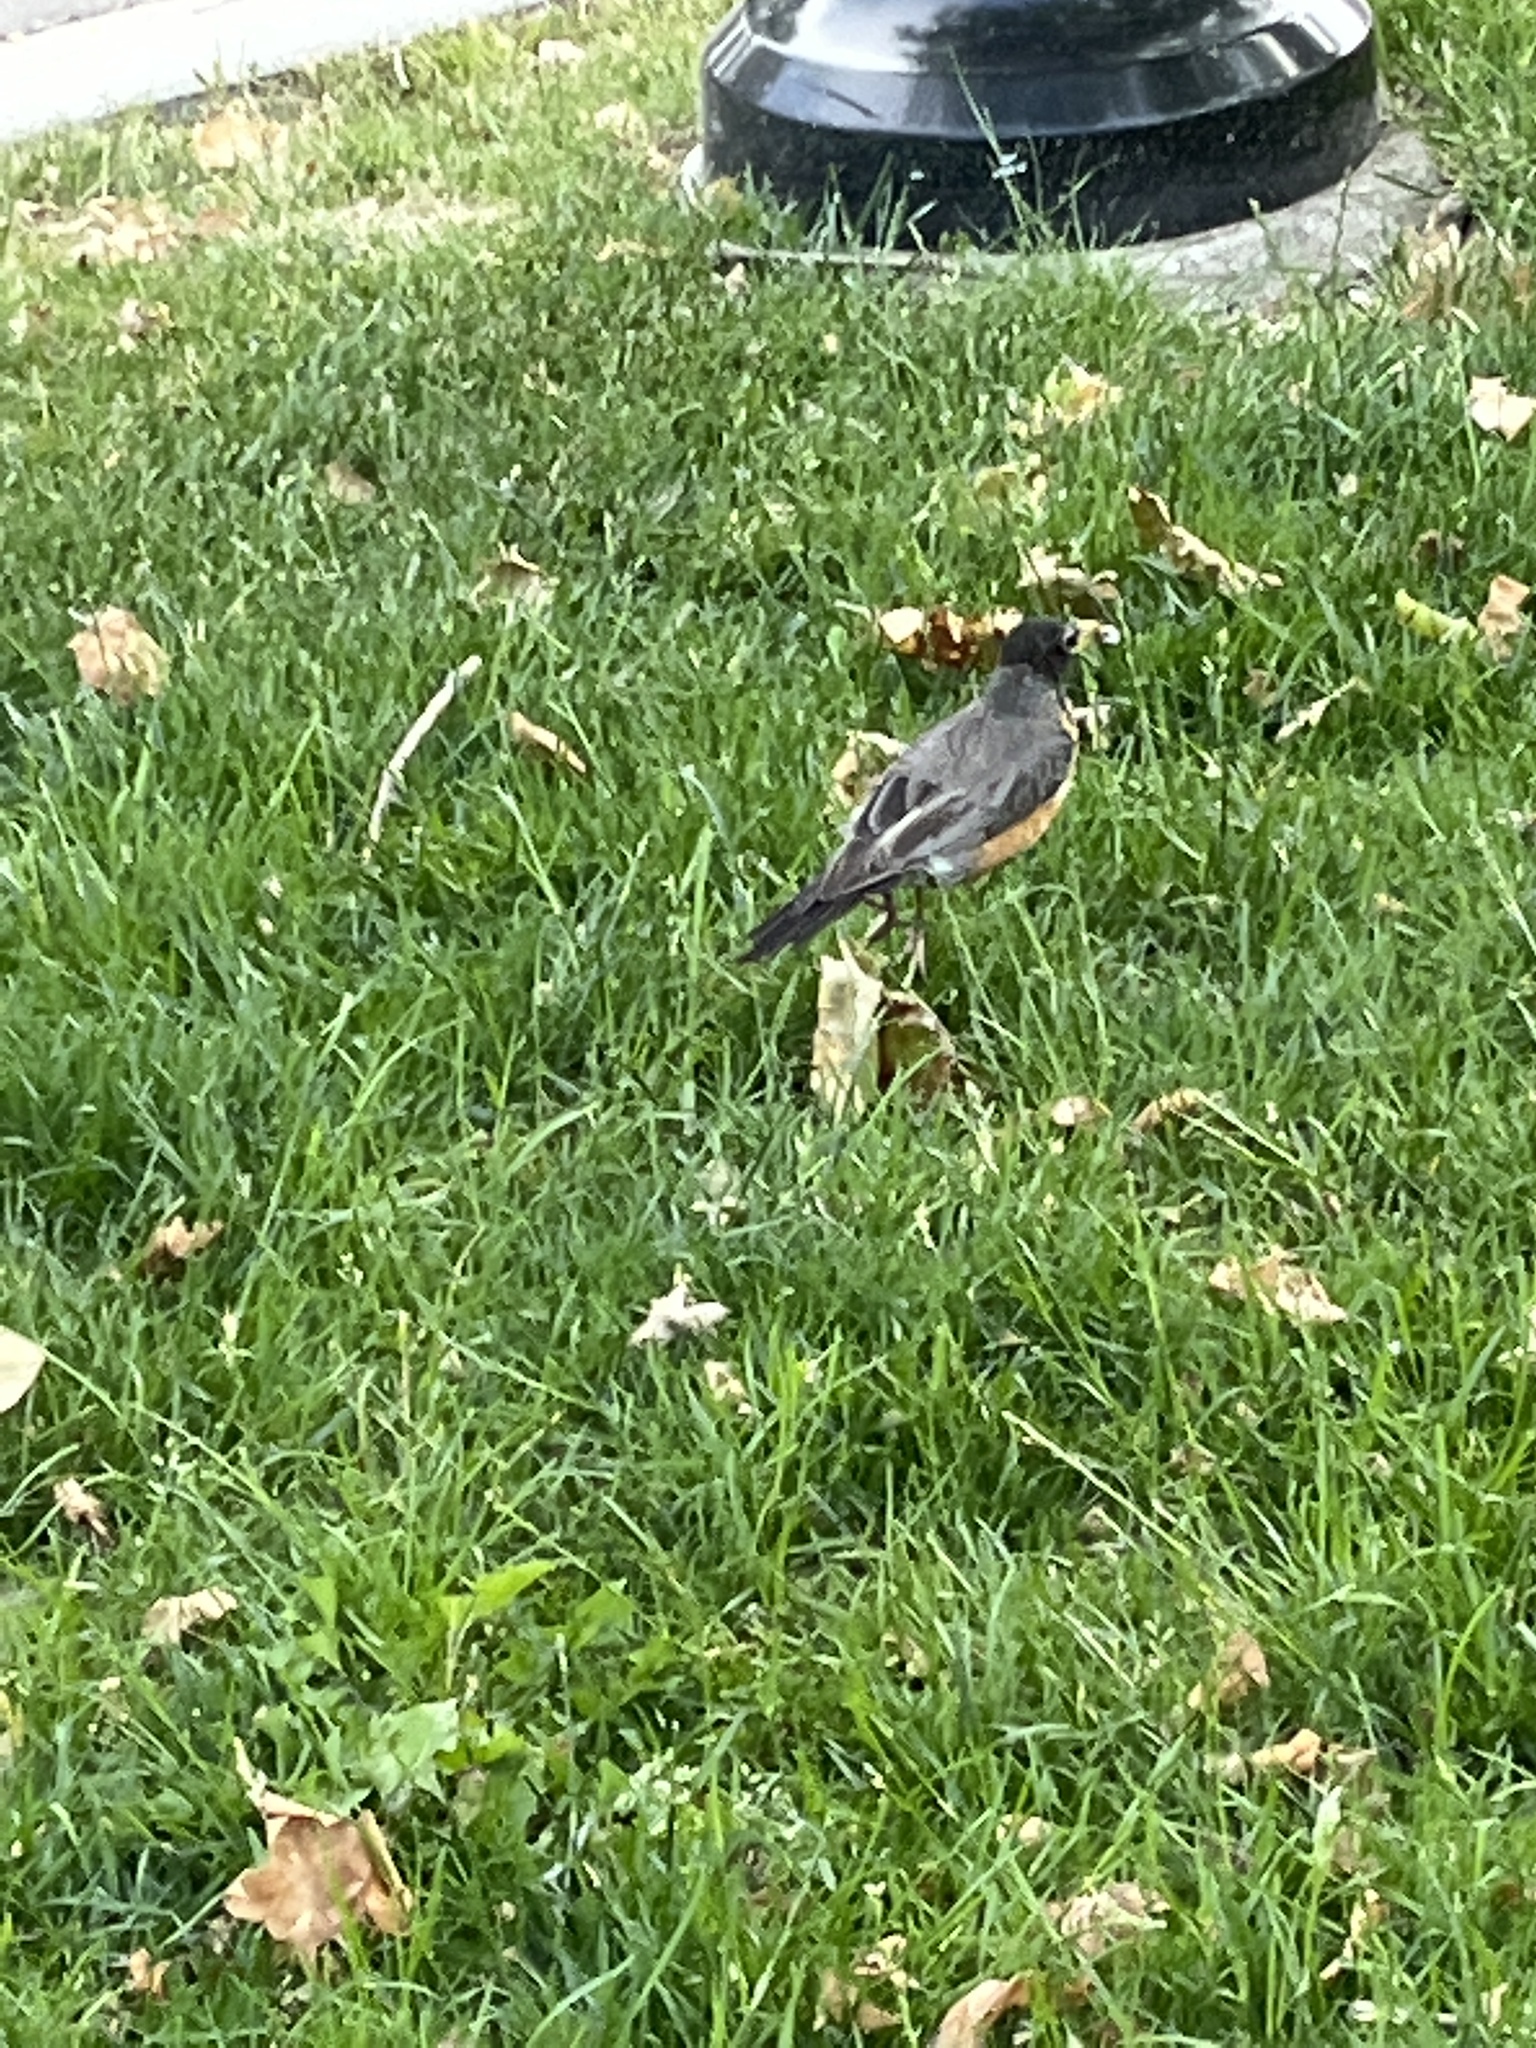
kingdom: Animalia
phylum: Chordata
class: Aves
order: Passeriformes
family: Turdidae
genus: Turdus
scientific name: Turdus migratorius
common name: American robin
